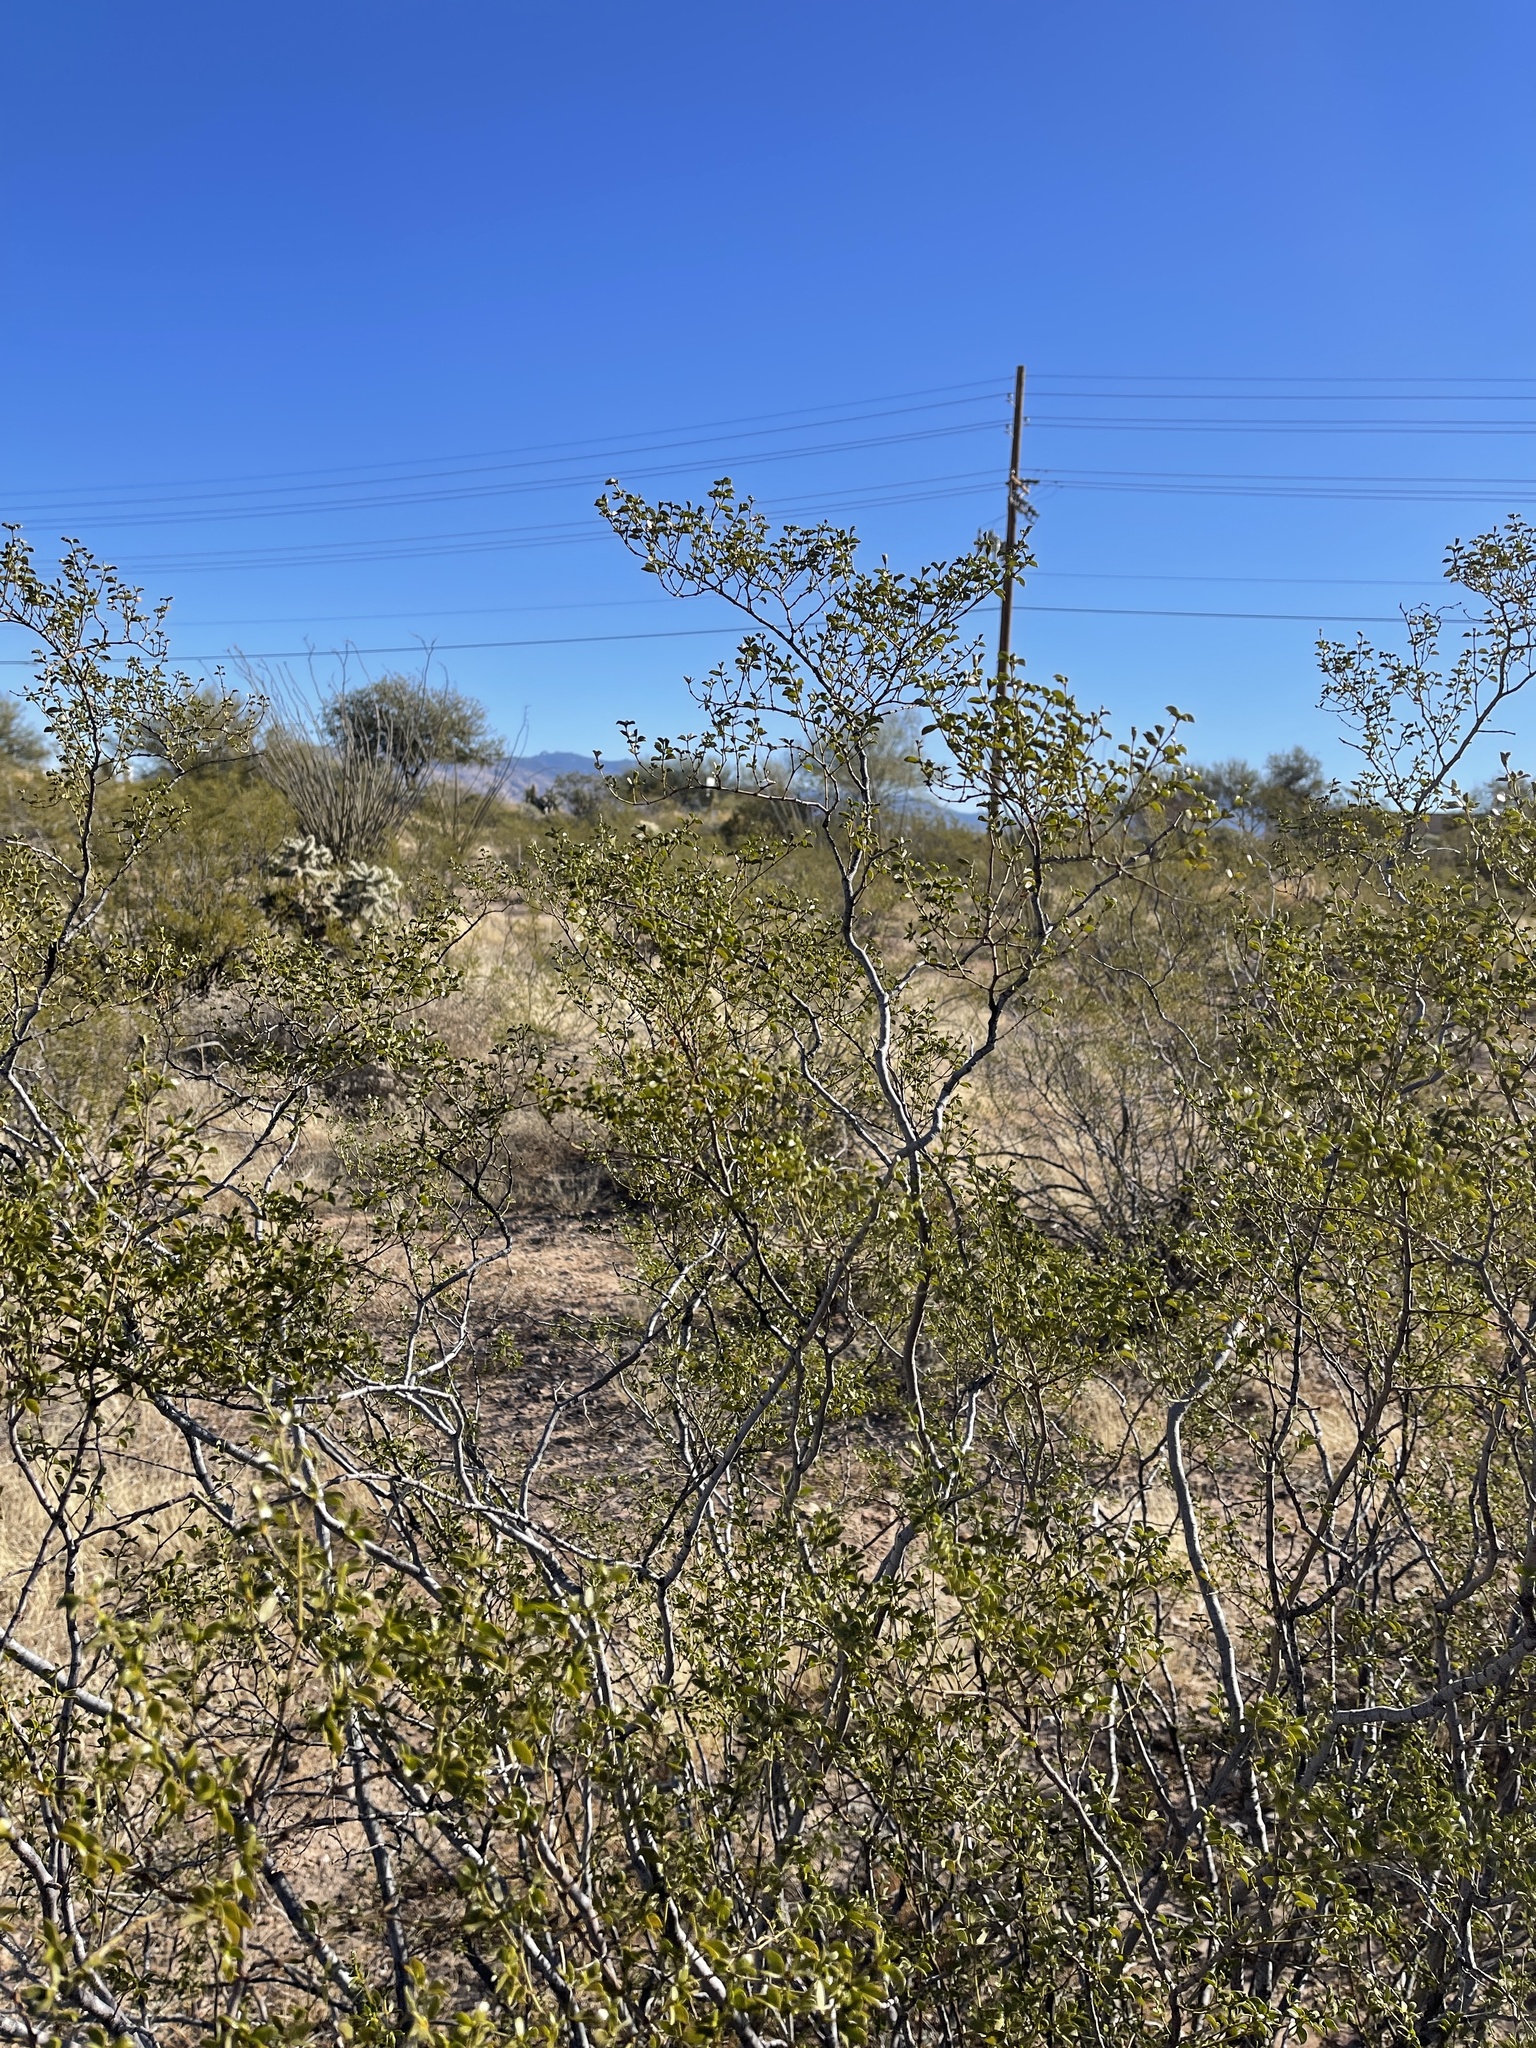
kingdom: Plantae
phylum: Tracheophyta
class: Magnoliopsida
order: Zygophyllales
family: Zygophyllaceae
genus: Larrea
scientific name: Larrea tridentata
